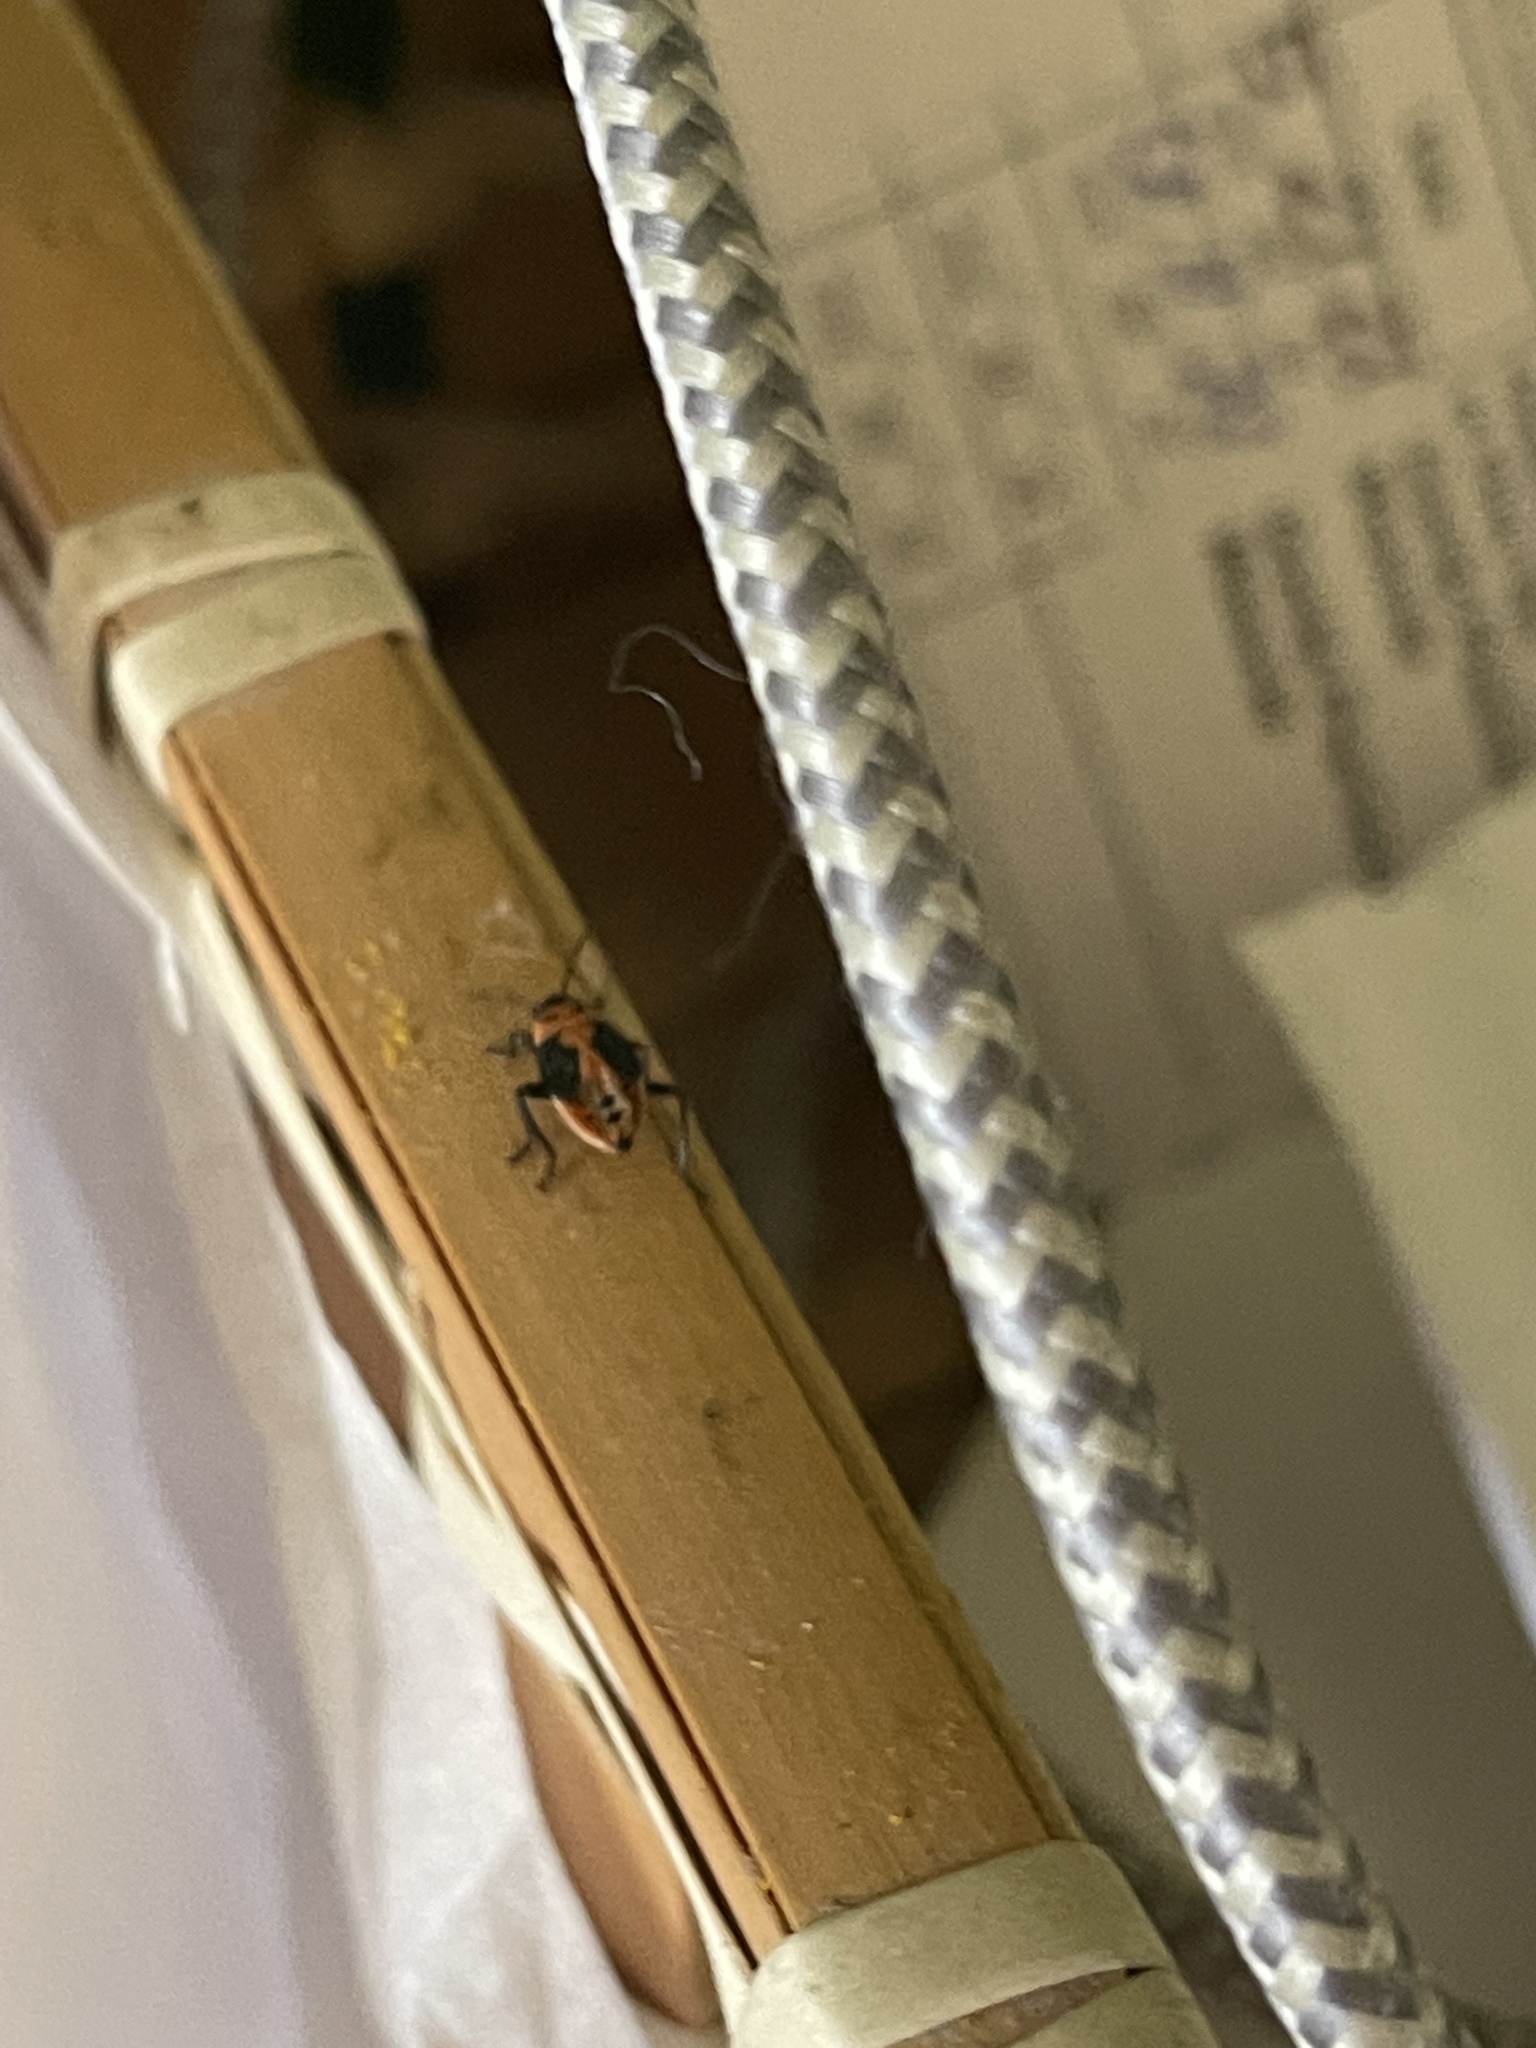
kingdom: Animalia
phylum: Arthropoda
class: Insecta
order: Hemiptera
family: Lygaeidae
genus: Lygaeus
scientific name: Lygaeus kalmii
